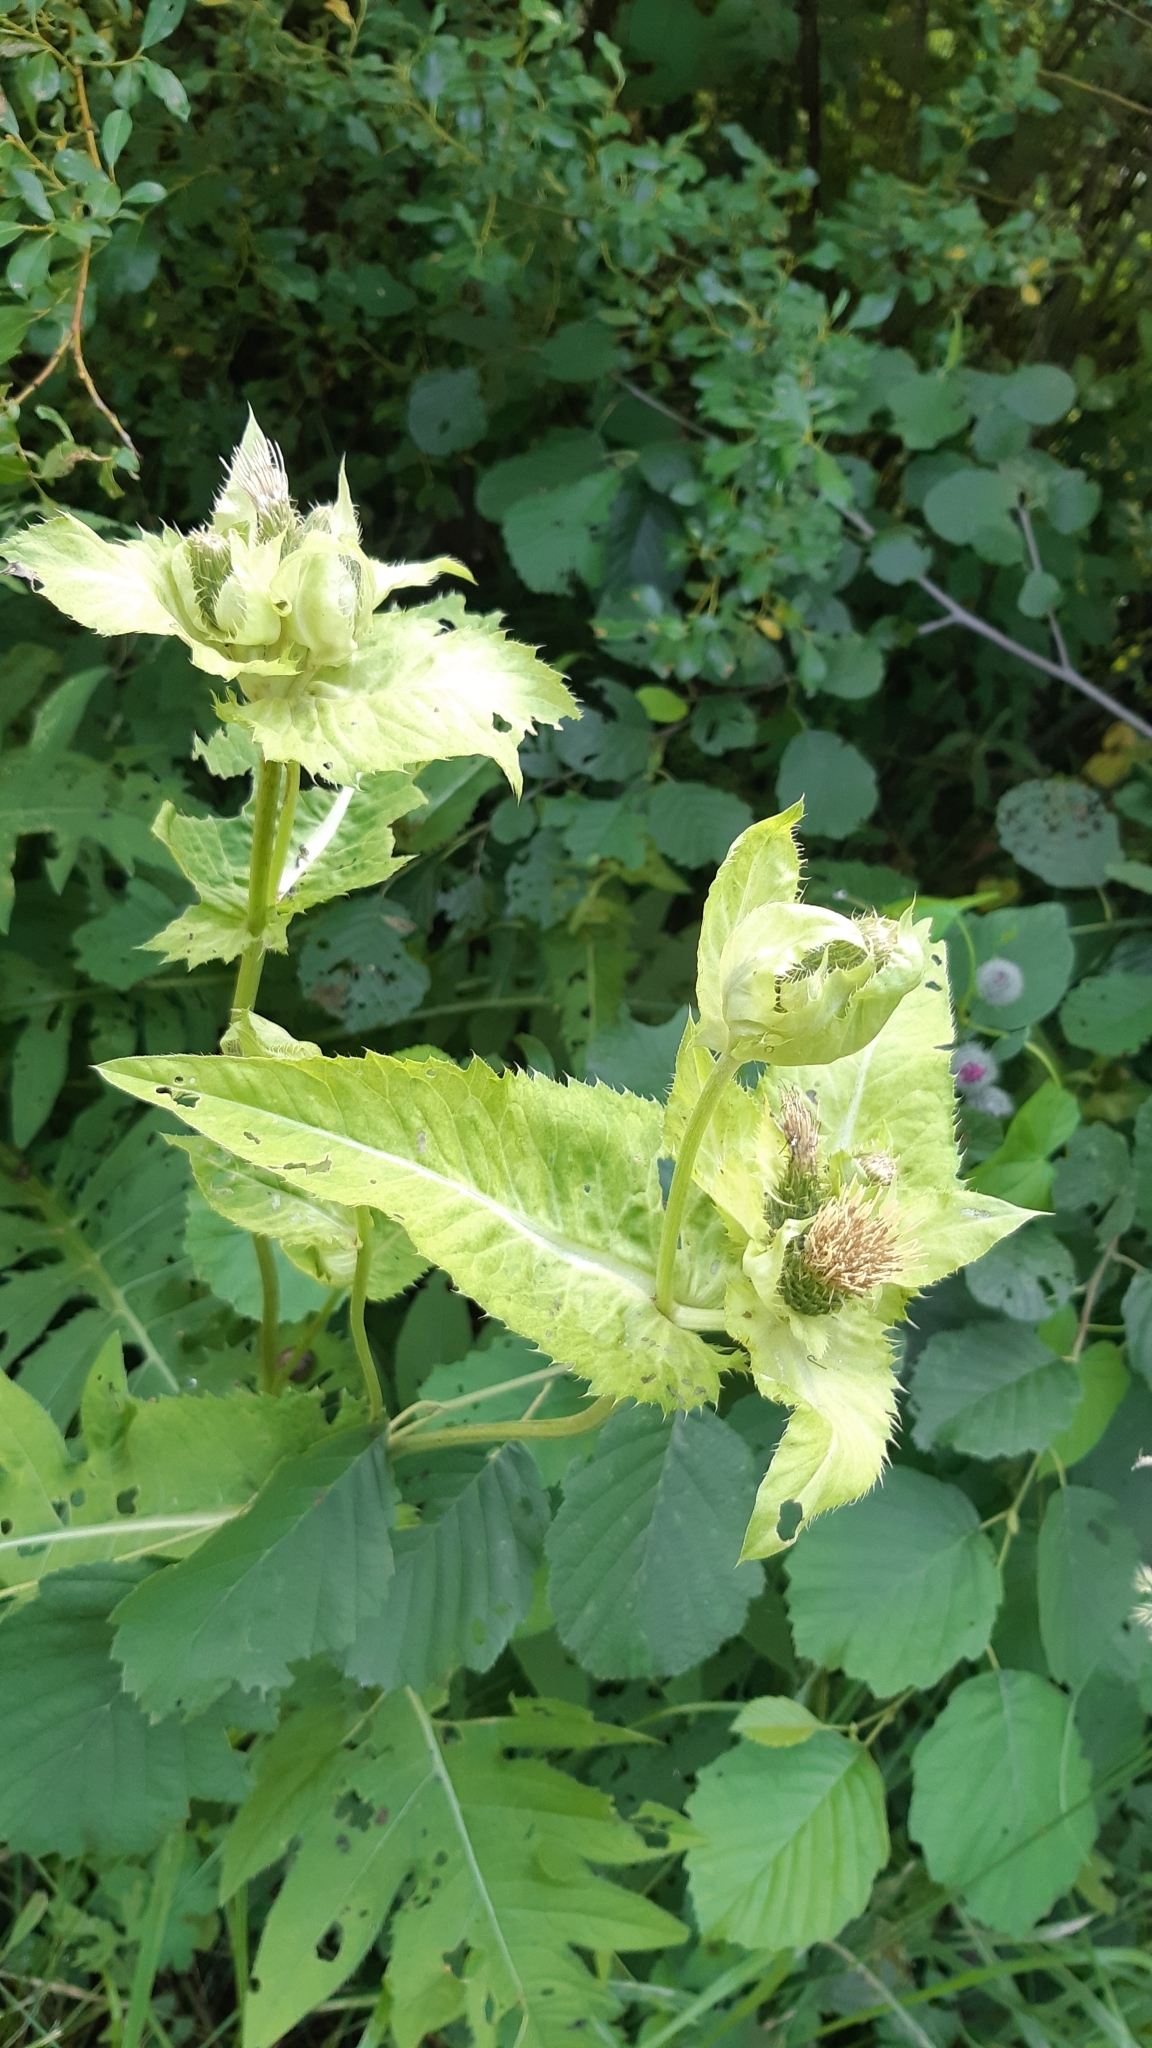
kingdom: Plantae
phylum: Tracheophyta
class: Magnoliopsida
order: Asterales
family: Asteraceae
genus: Cirsium
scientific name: Cirsium oleraceum
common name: Cabbage thistle
